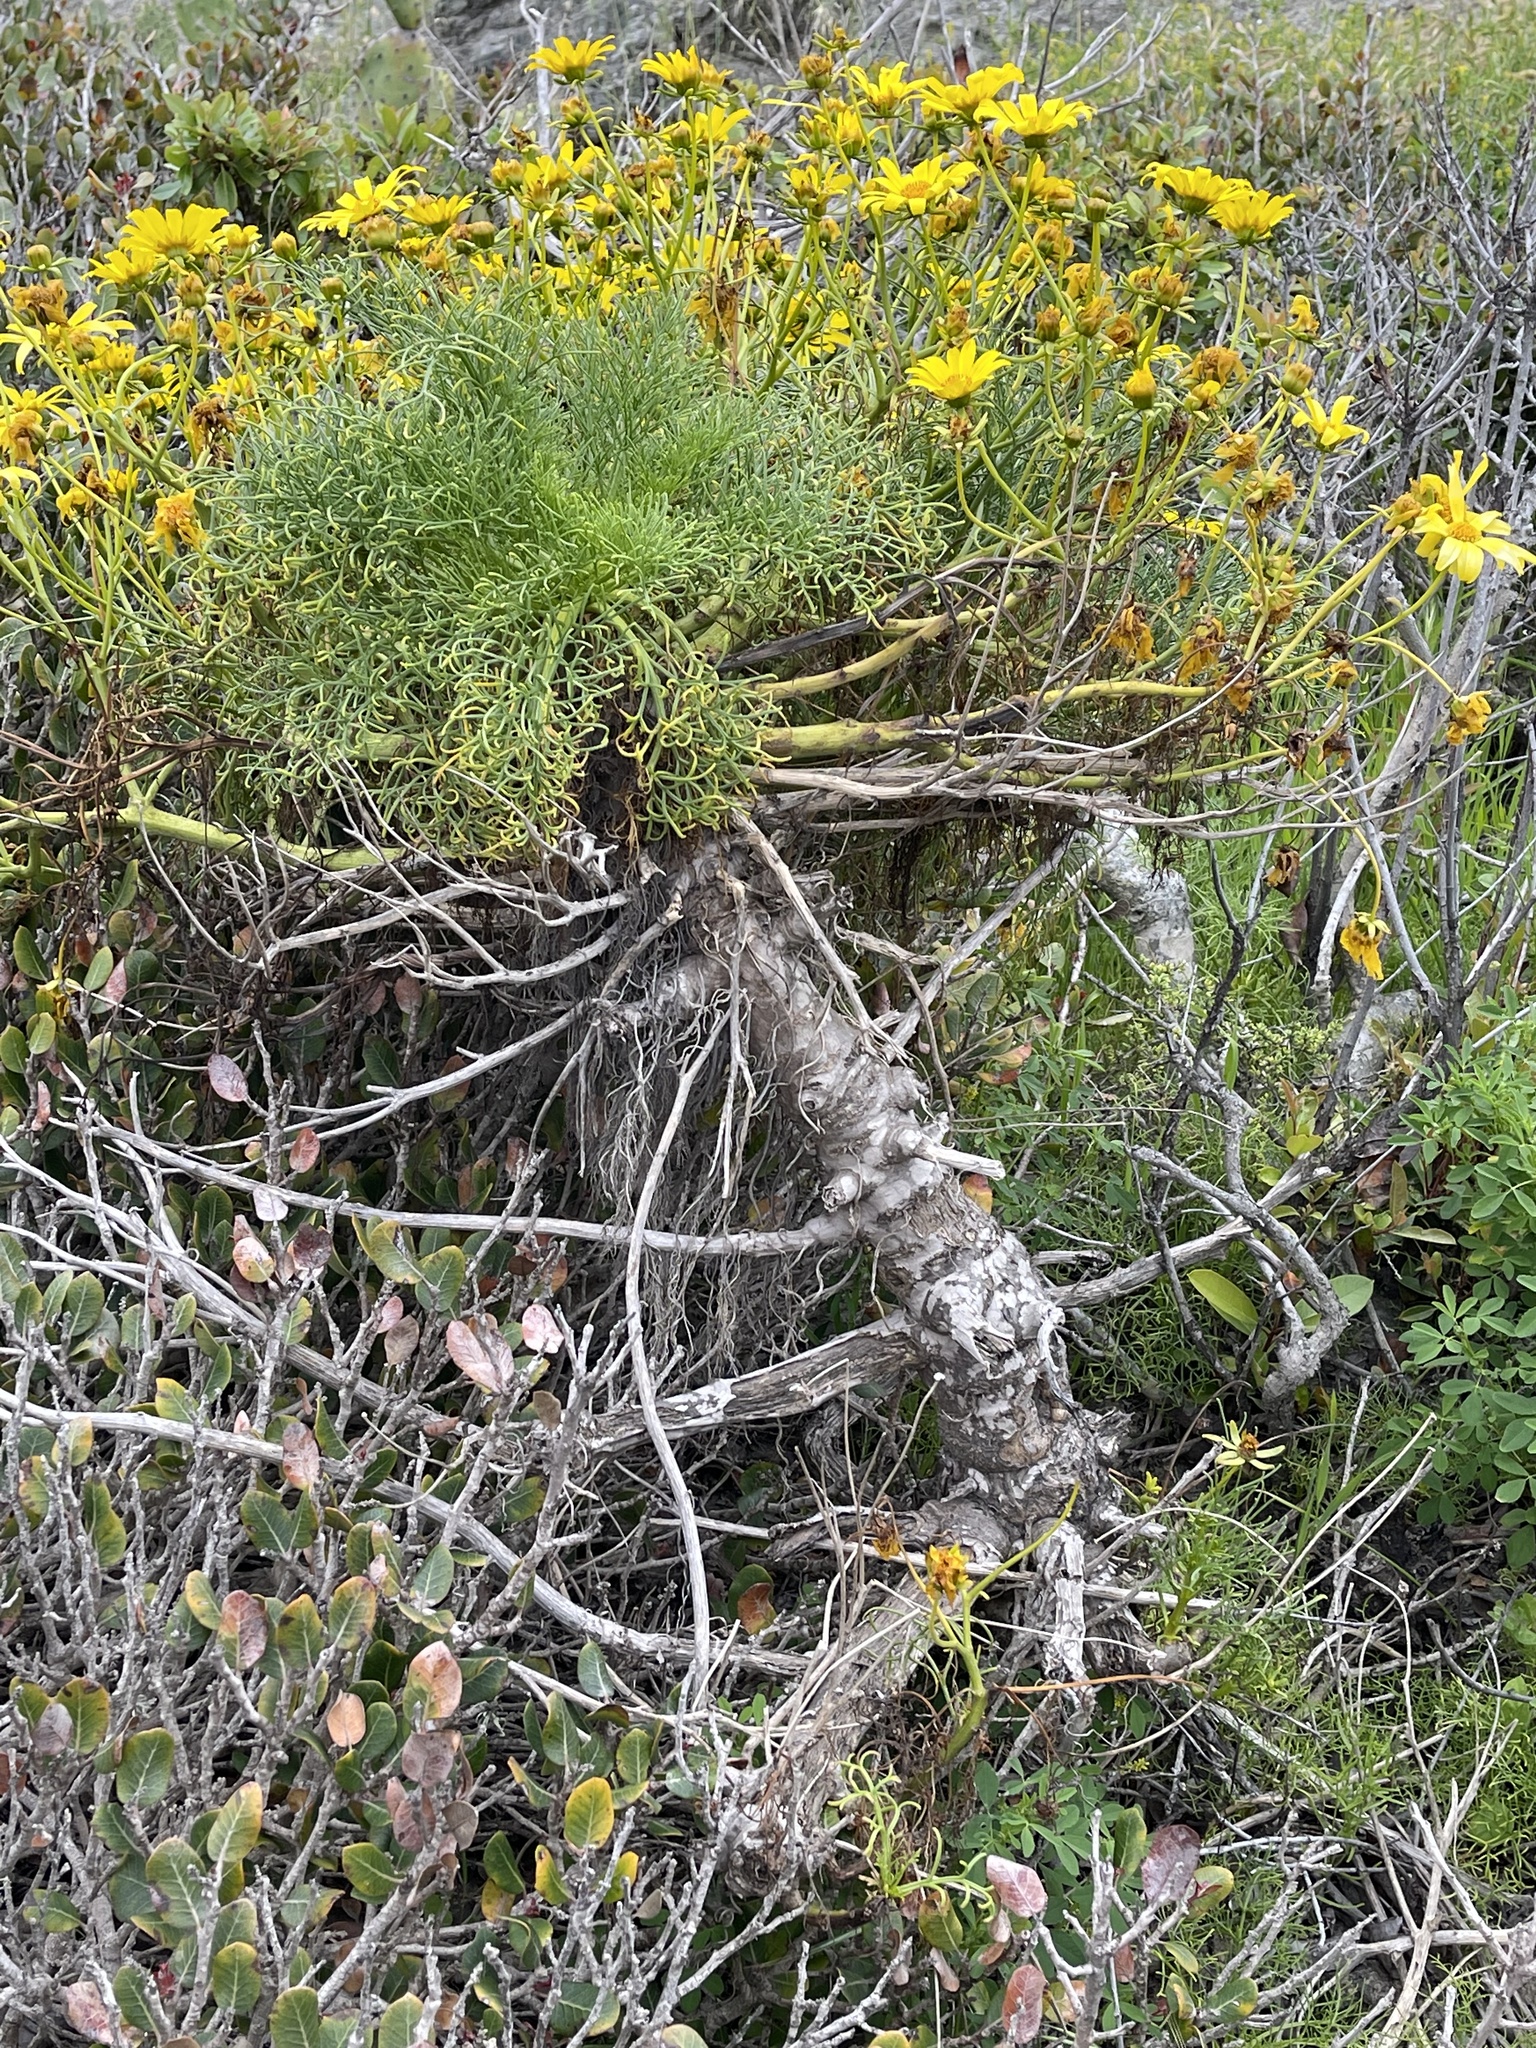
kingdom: Plantae
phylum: Tracheophyta
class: Magnoliopsida
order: Asterales
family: Asteraceae
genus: Coreopsis
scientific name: Coreopsis gigantea
